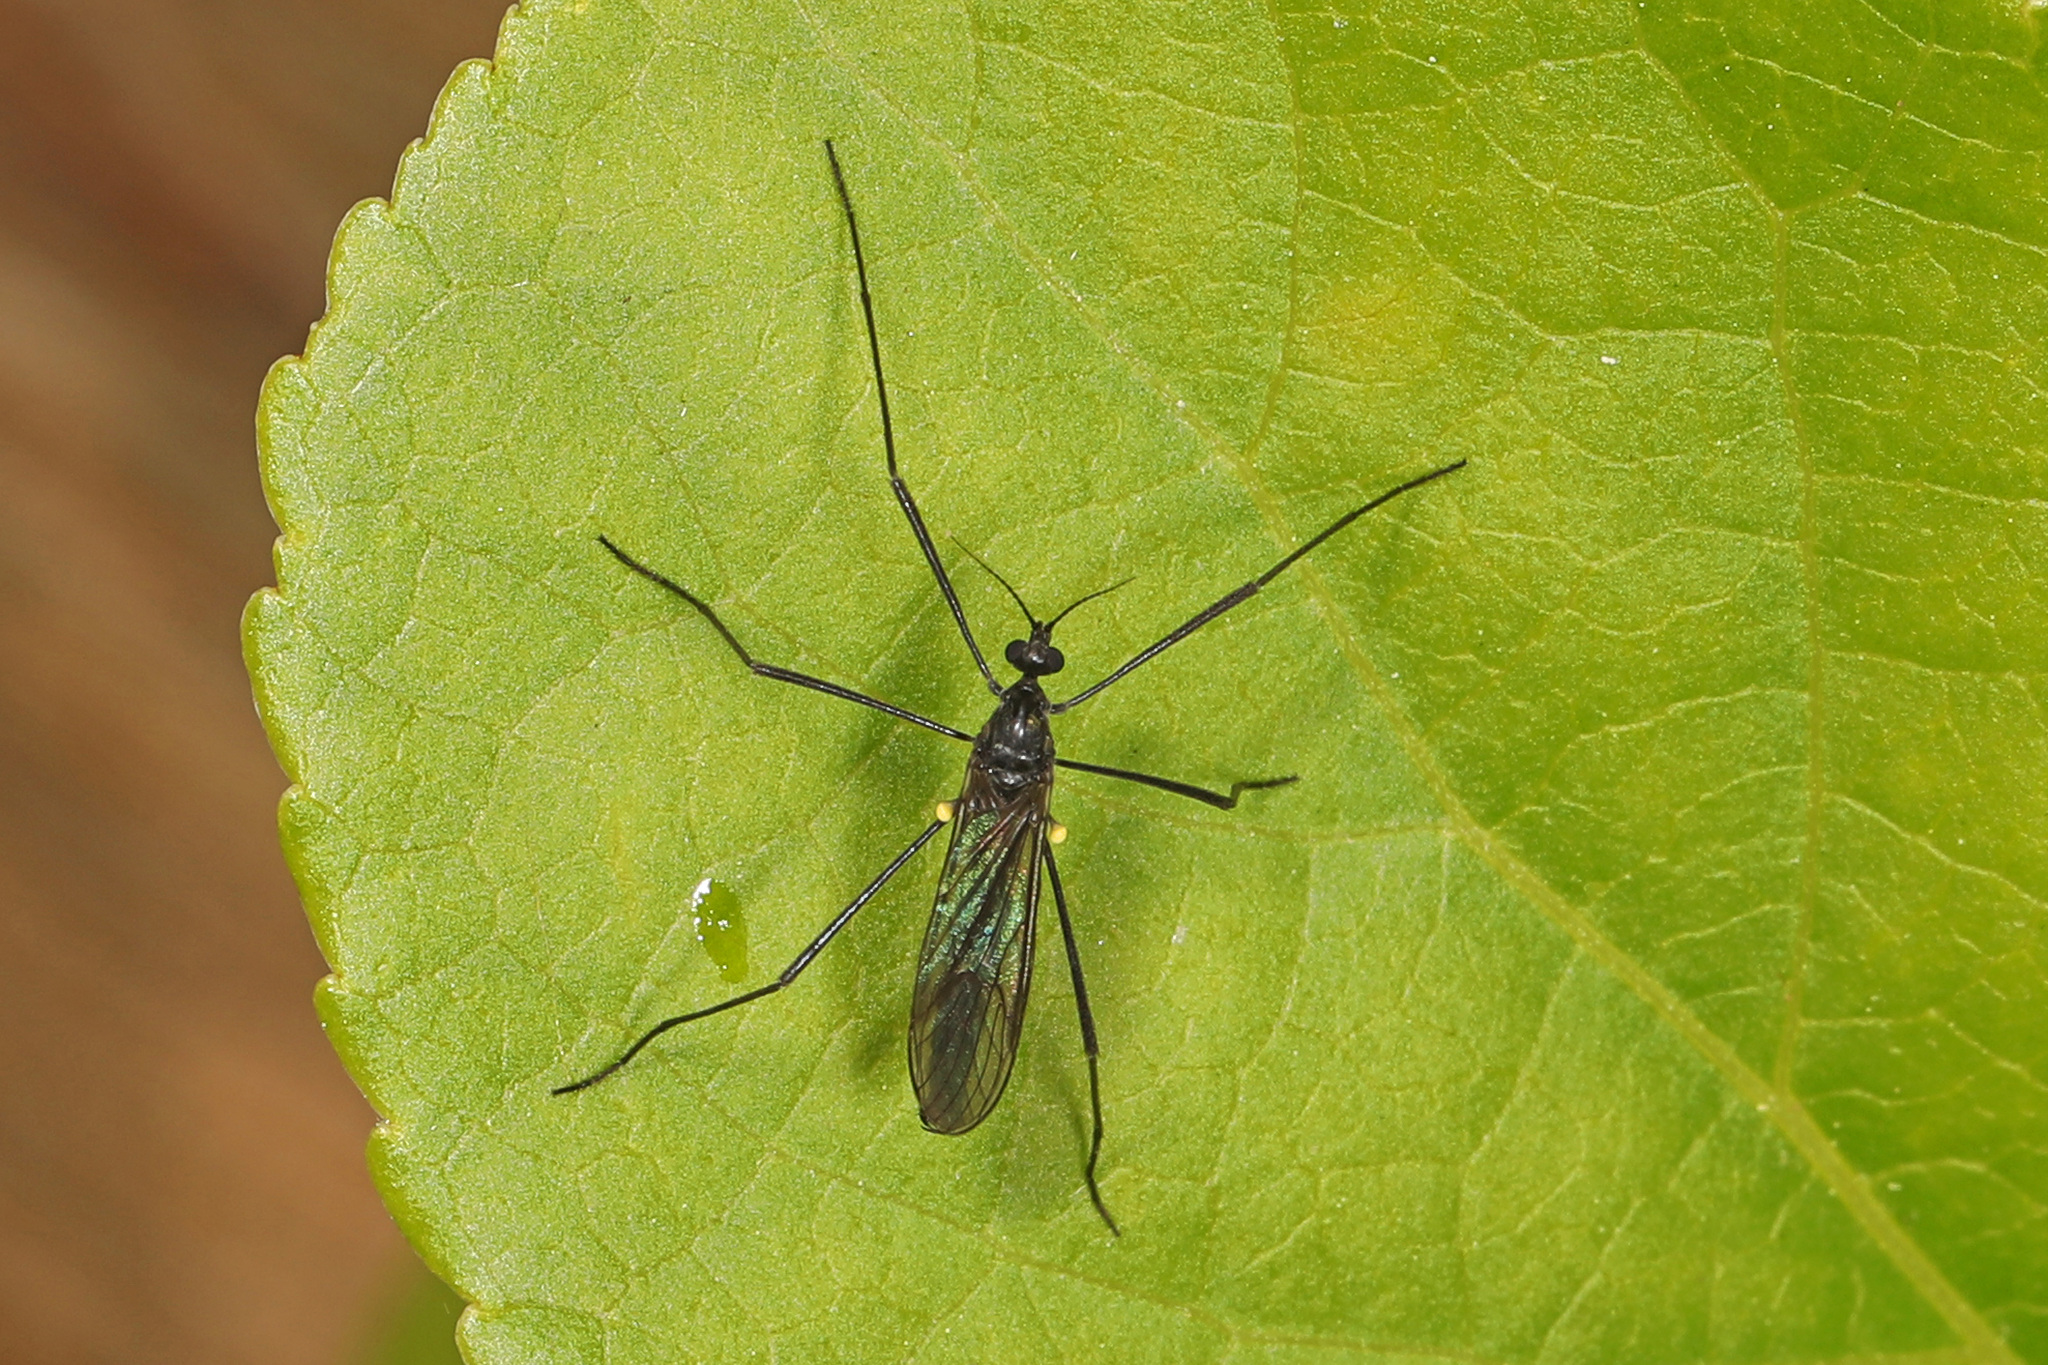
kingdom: Animalia
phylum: Arthropoda
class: Insecta
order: Diptera
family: Limoniidae
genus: Gnophomyia
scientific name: Gnophomyia tristissima
